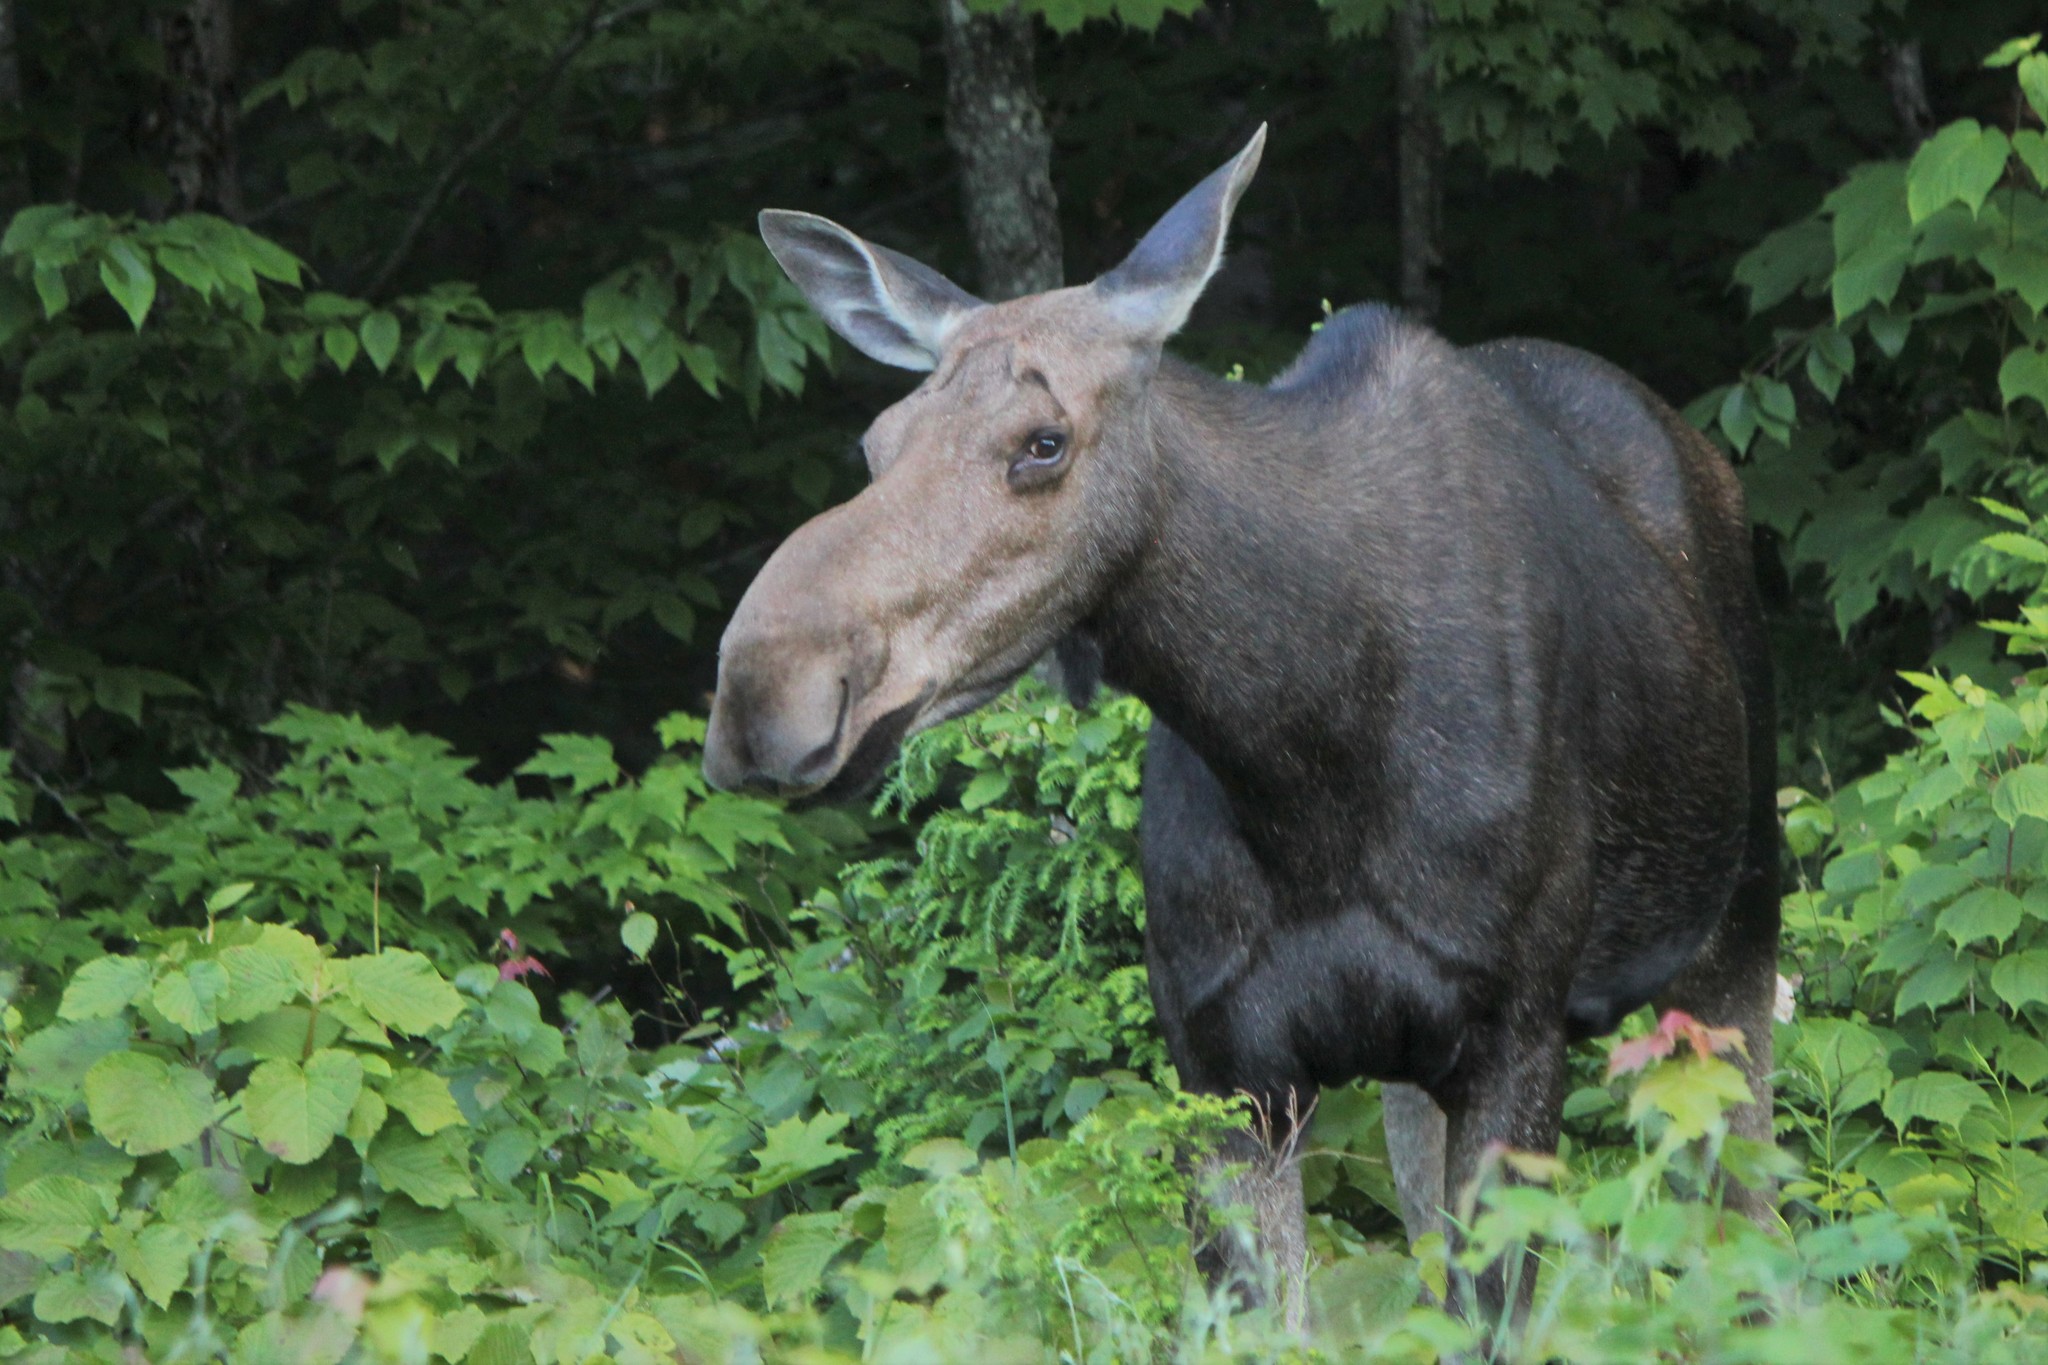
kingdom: Animalia
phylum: Chordata
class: Mammalia
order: Artiodactyla
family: Cervidae
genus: Alces
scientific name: Alces alces
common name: Moose
